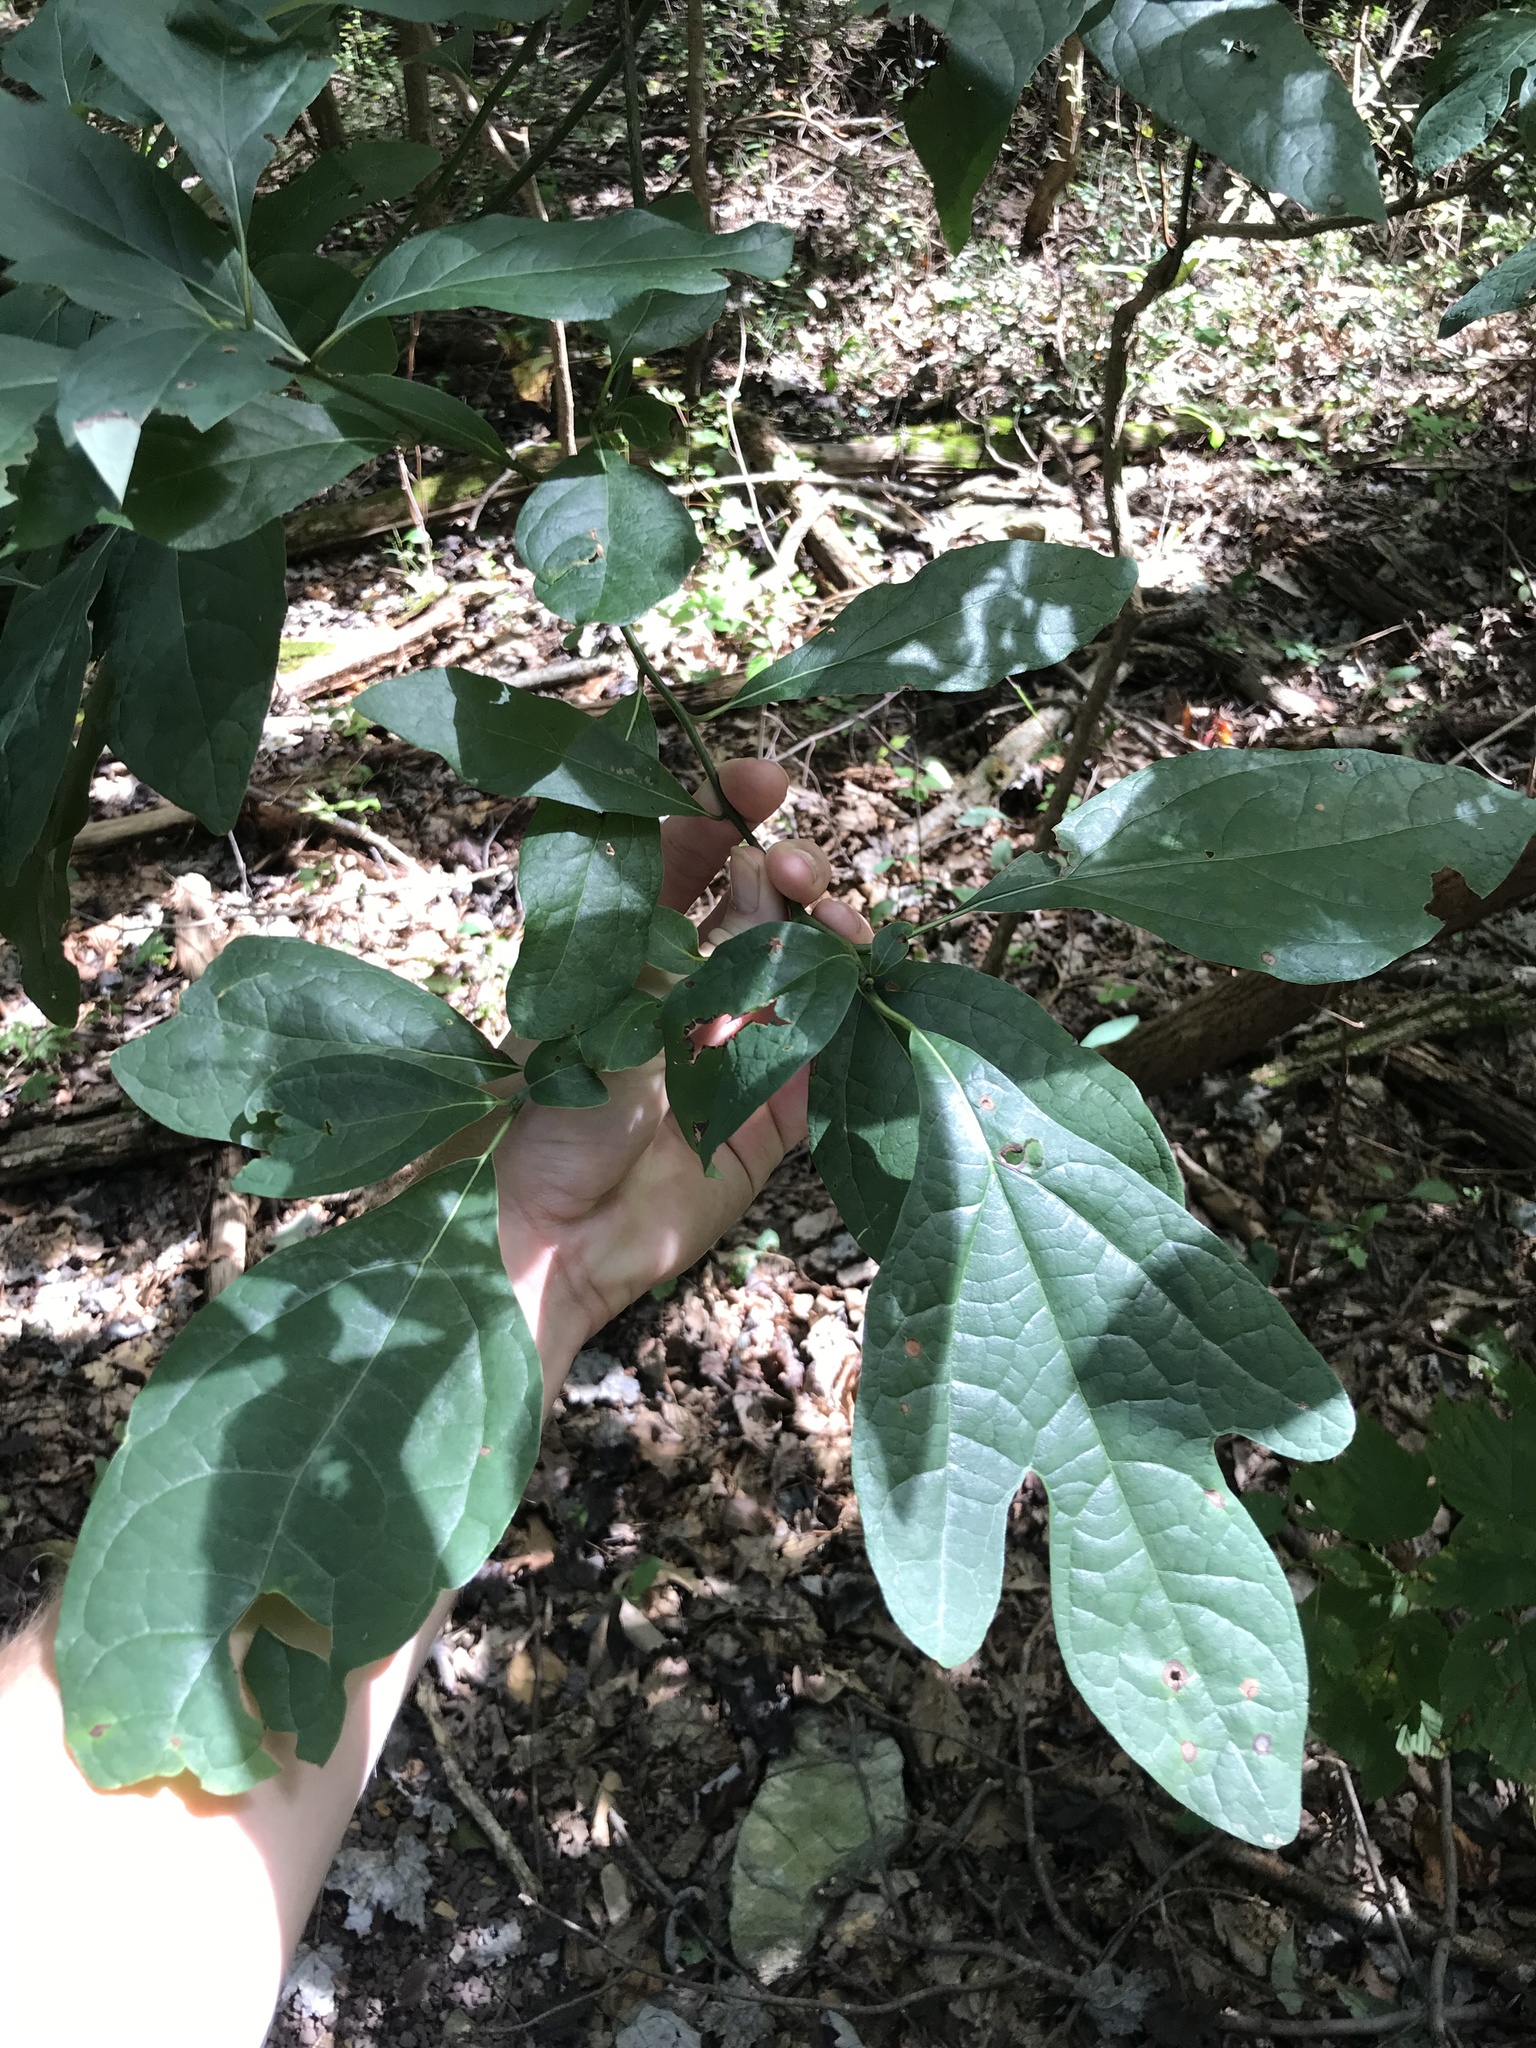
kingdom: Plantae
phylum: Tracheophyta
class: Magnoliopsida
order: Laurales
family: Lauraceae
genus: Sassafras
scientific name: Sassafras albidum
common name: Sassafras
